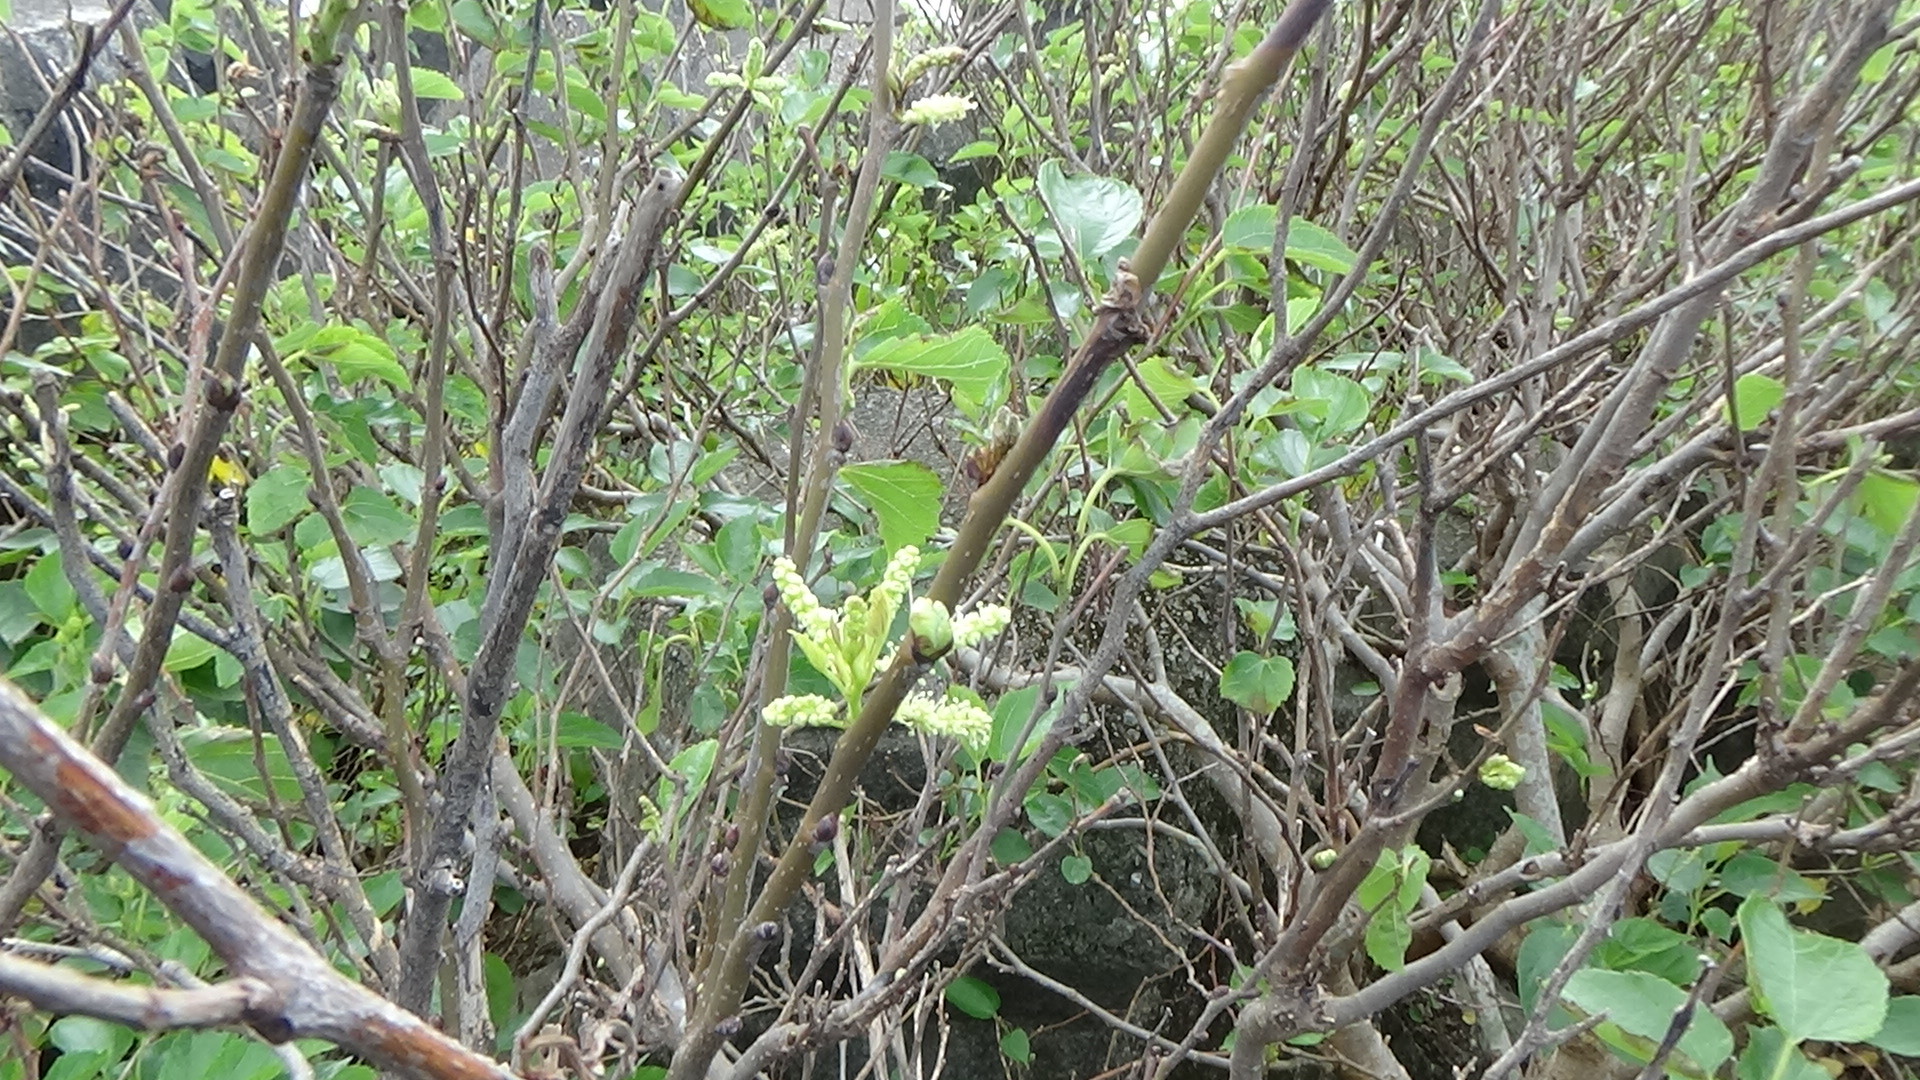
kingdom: Plantae
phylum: Tracheophyta
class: Magnoliopsida
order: Rosales
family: Moraceae
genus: Morus
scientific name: Morus indica
